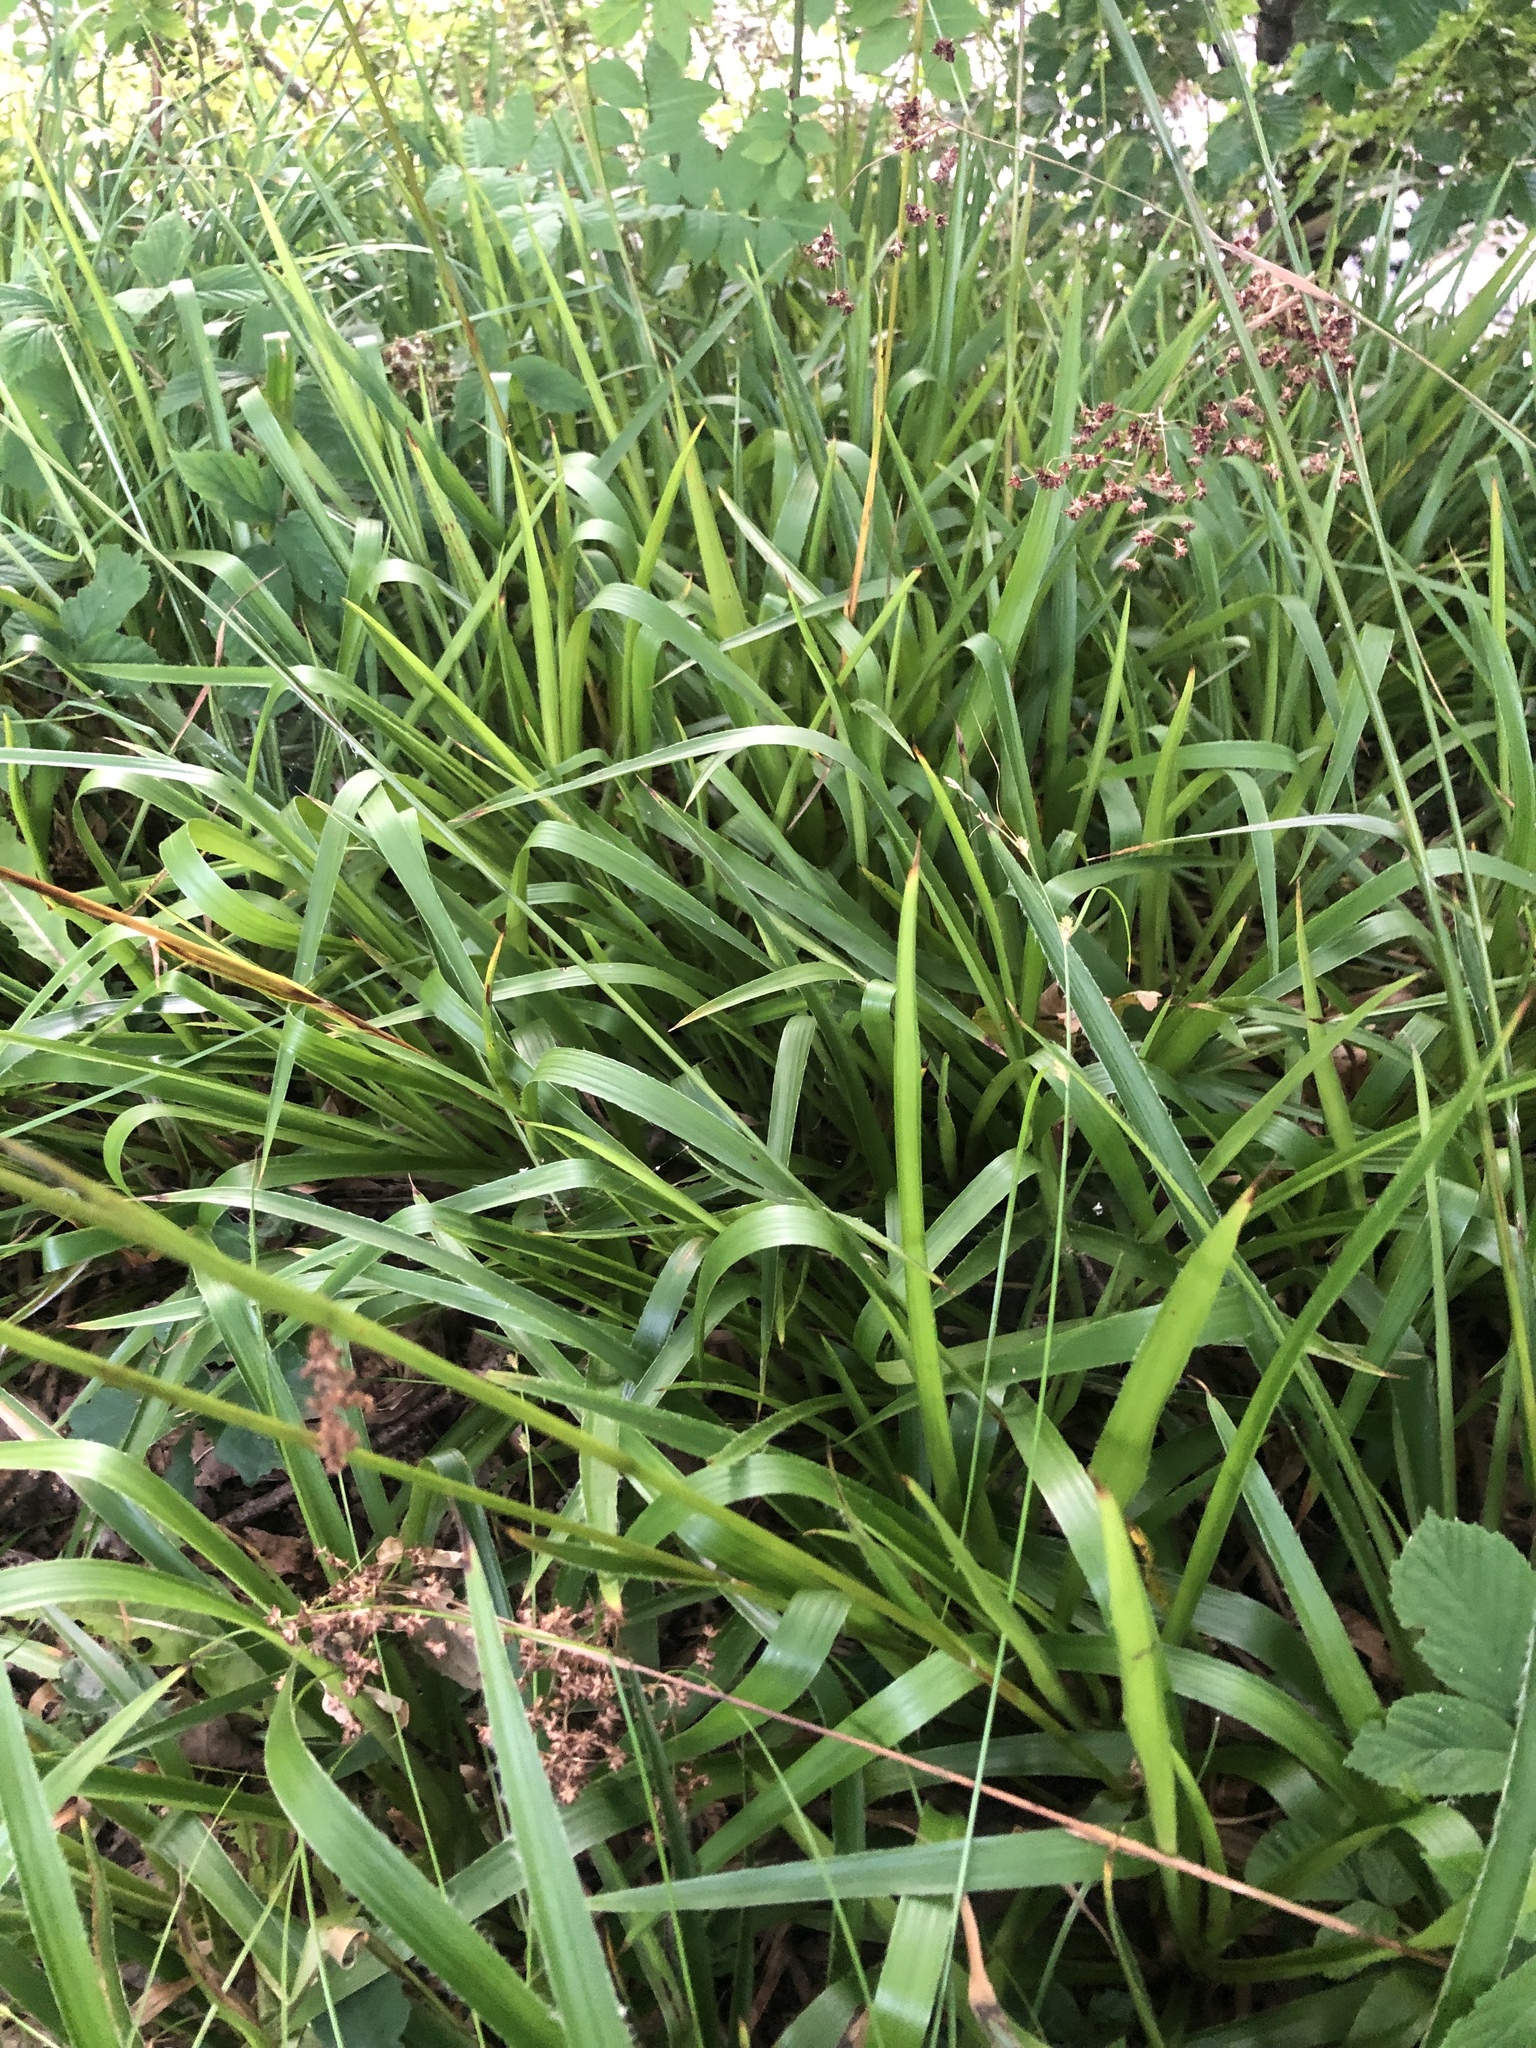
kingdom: Plantae
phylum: Tracheophyta
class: Liliopsida
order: Poales
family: Juncaceae
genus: Luzula
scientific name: Luzula sylvatica
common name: Great wood-rush
